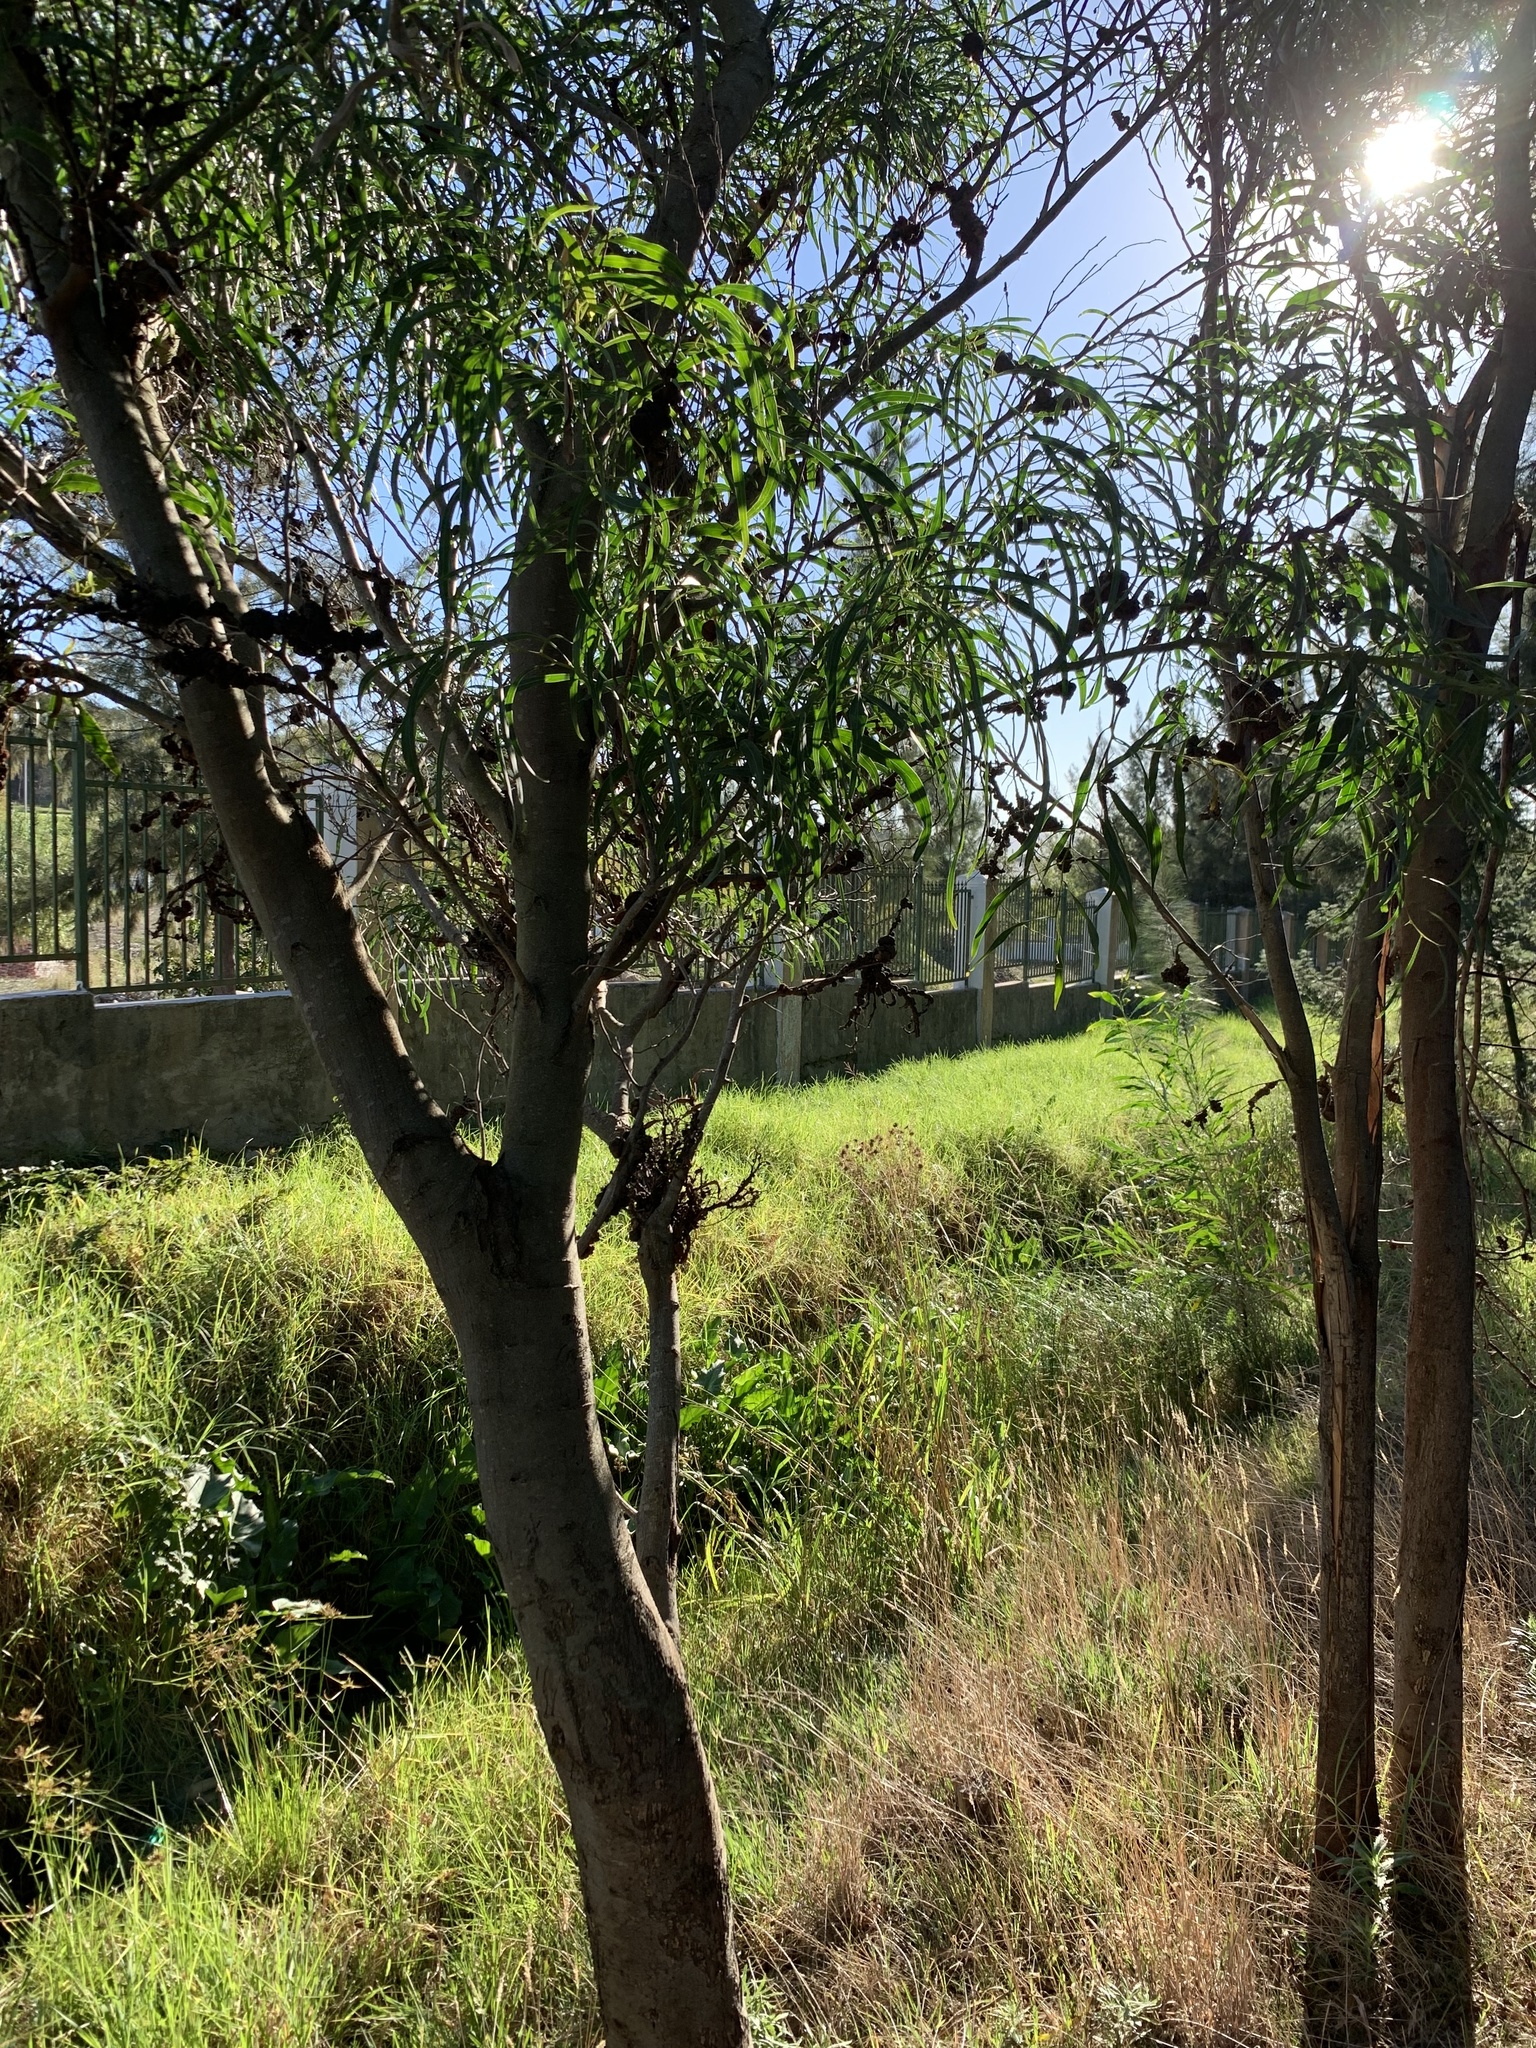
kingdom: Plantae
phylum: Tracheophyta
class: Magnoliopsida
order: Fabales
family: Fabaceae
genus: Acacia
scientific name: Acacia saligna
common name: Orange wattle
